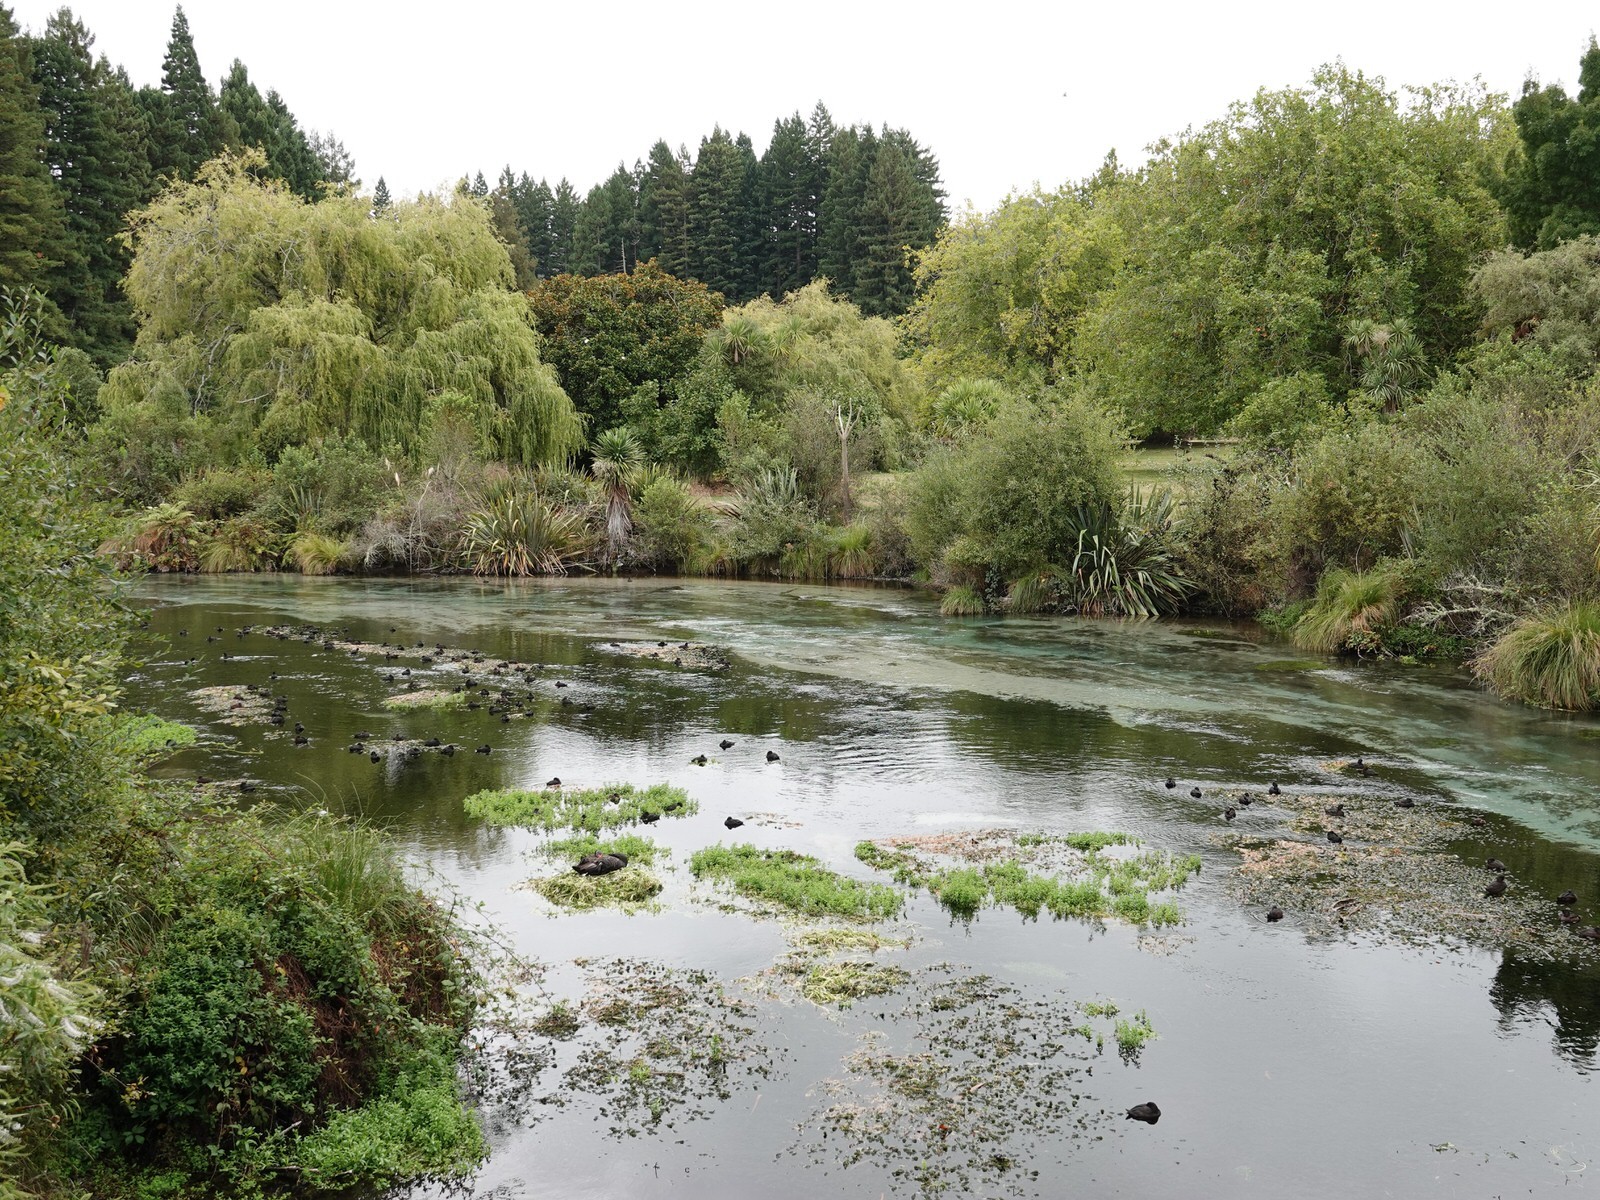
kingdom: Animalia
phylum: Chordata
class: Aves
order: Anseriformes
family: Anatidae
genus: Cygnus
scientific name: Cygnus atratus
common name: Black swan
